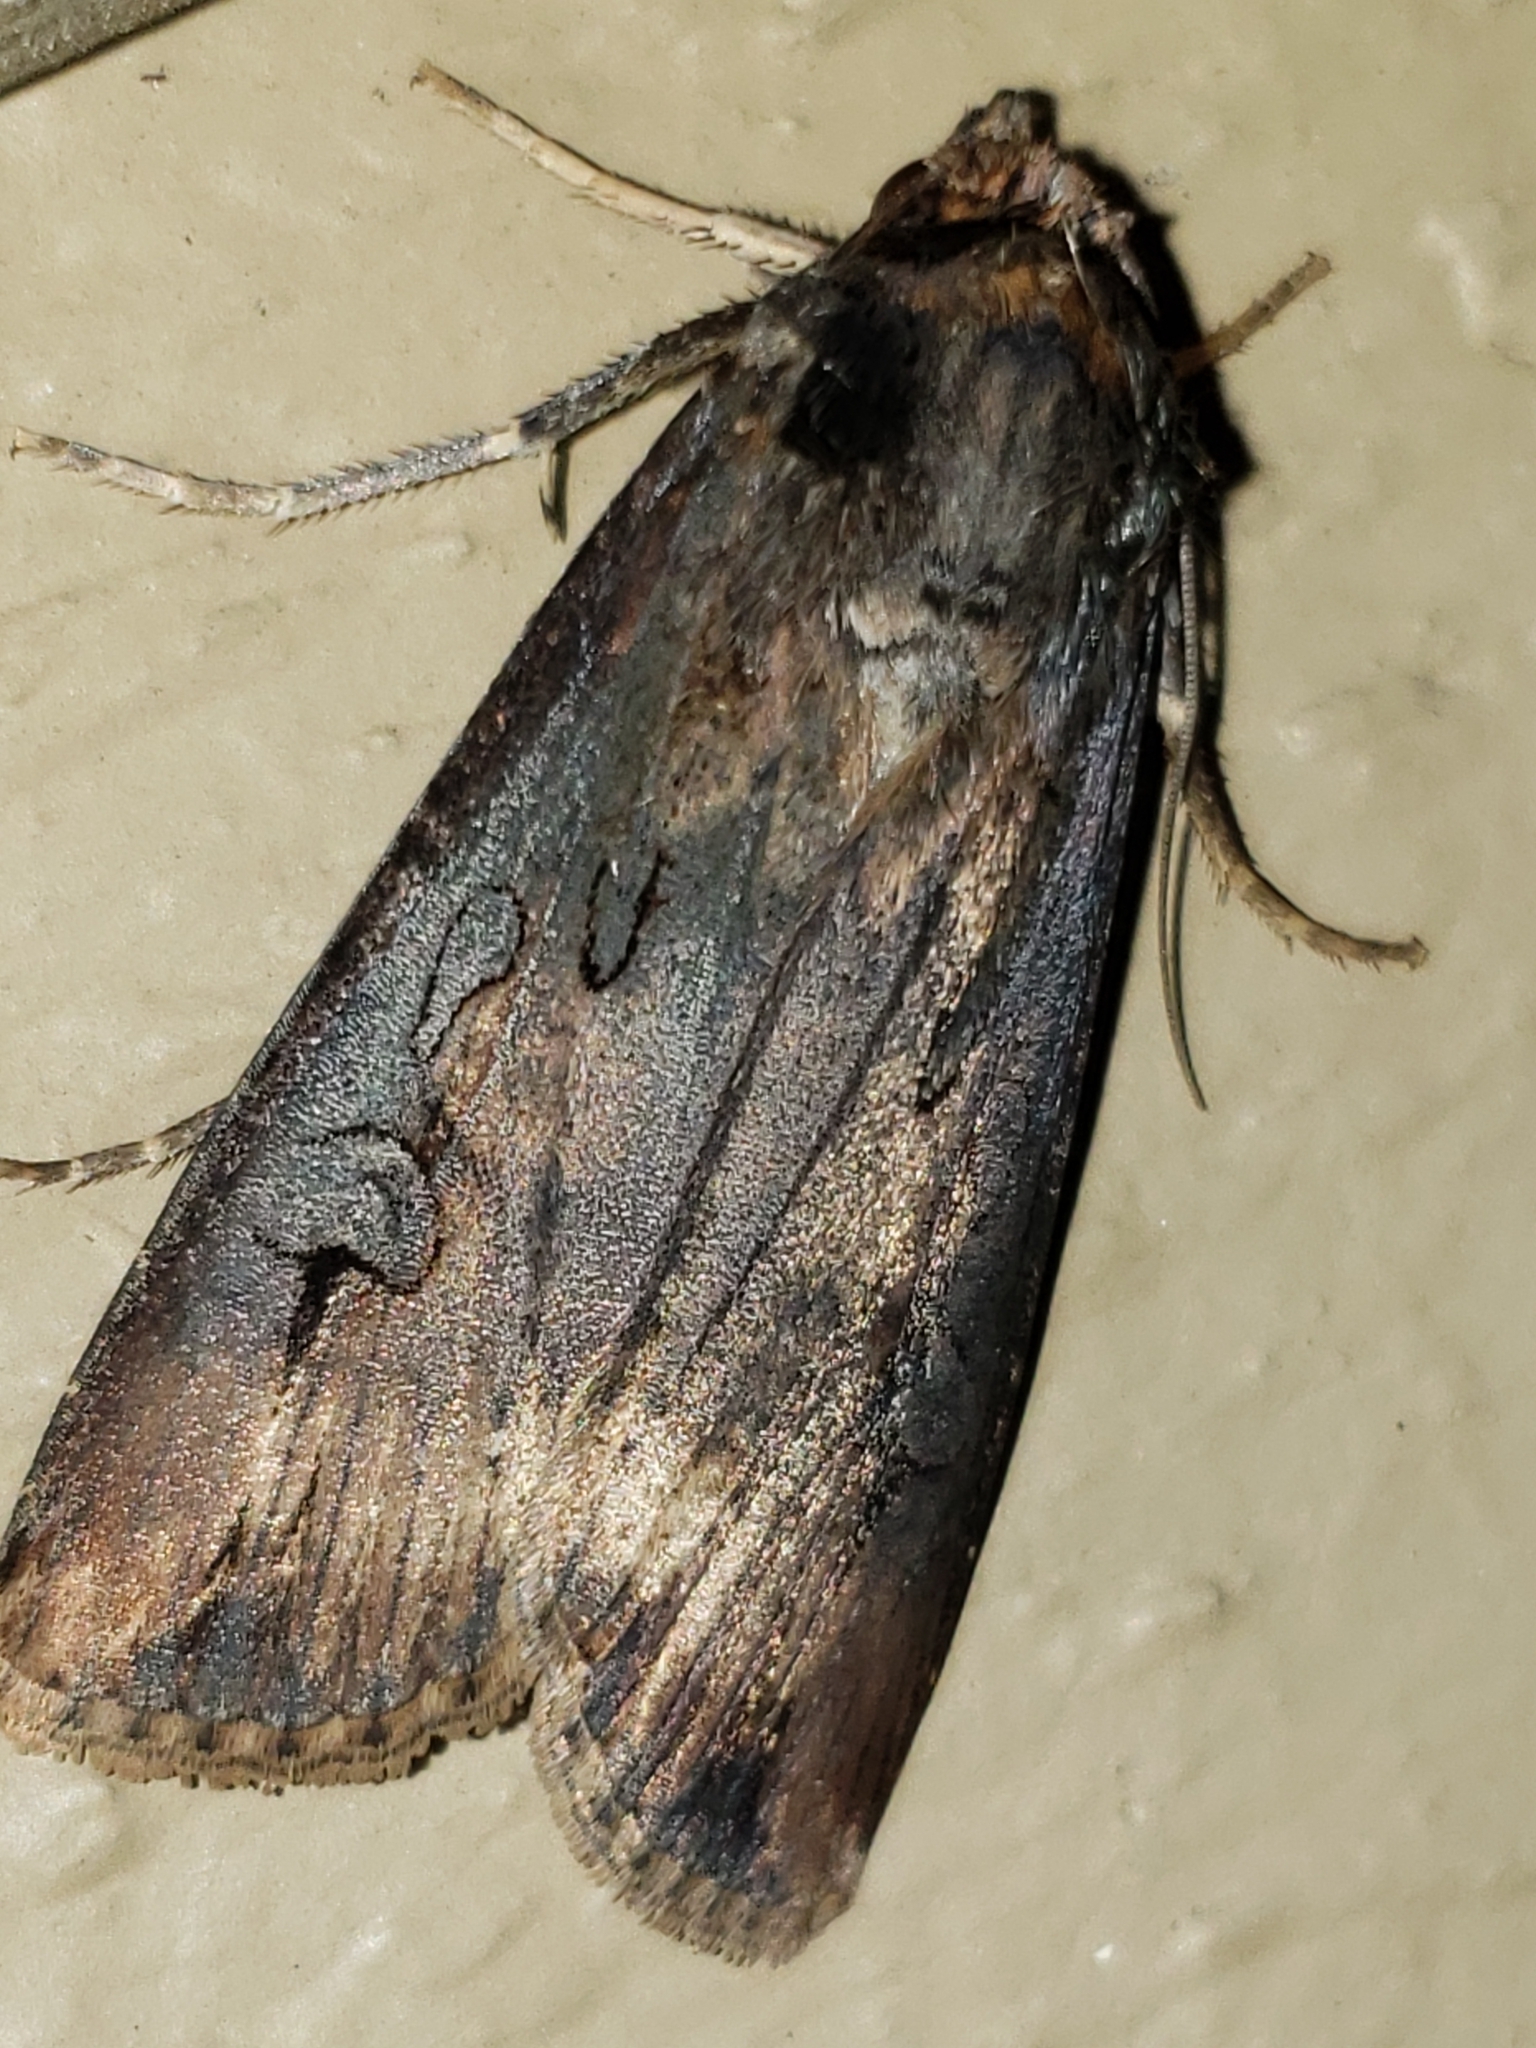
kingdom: Animalia
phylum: Arthropoda
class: Insecta
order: Lepidoptera
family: Noctuidae
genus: Agrotis
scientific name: Agrotis ipsilon
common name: Dark sword-grass
